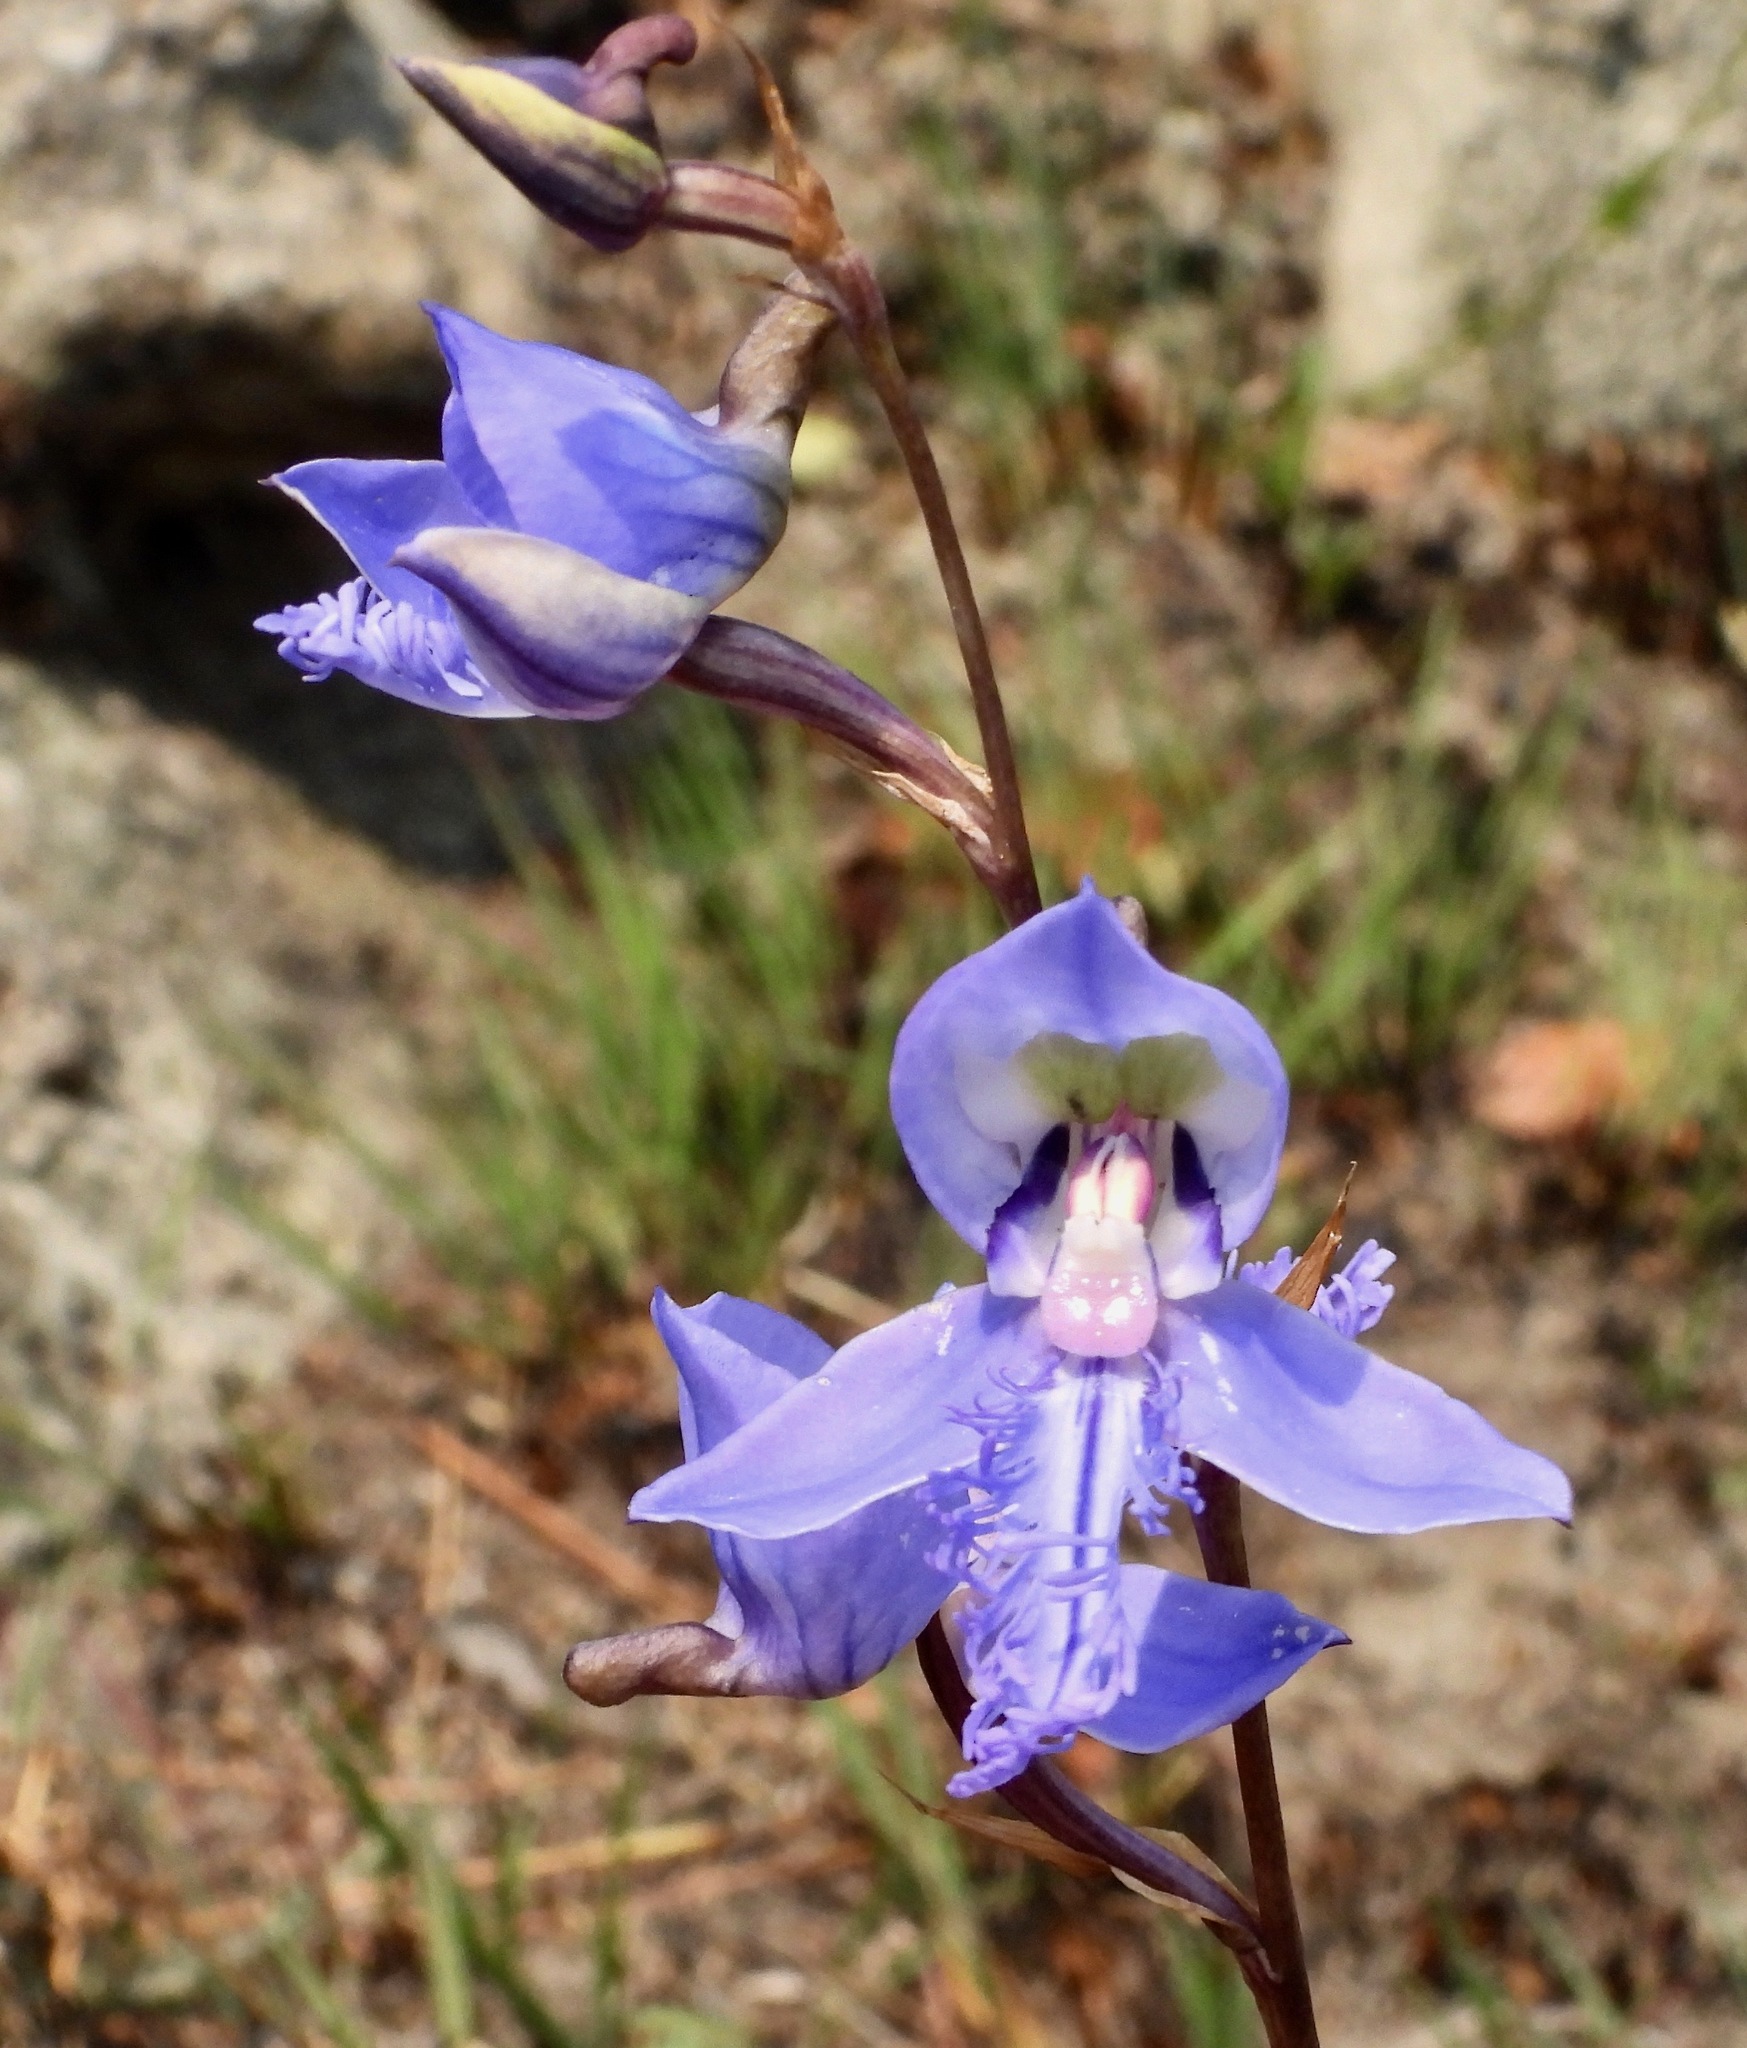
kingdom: Plantae
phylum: Tracheophyta
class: Liliopsida
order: Asparagales
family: Orchidaceae
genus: Disa
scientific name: Disa baurii
